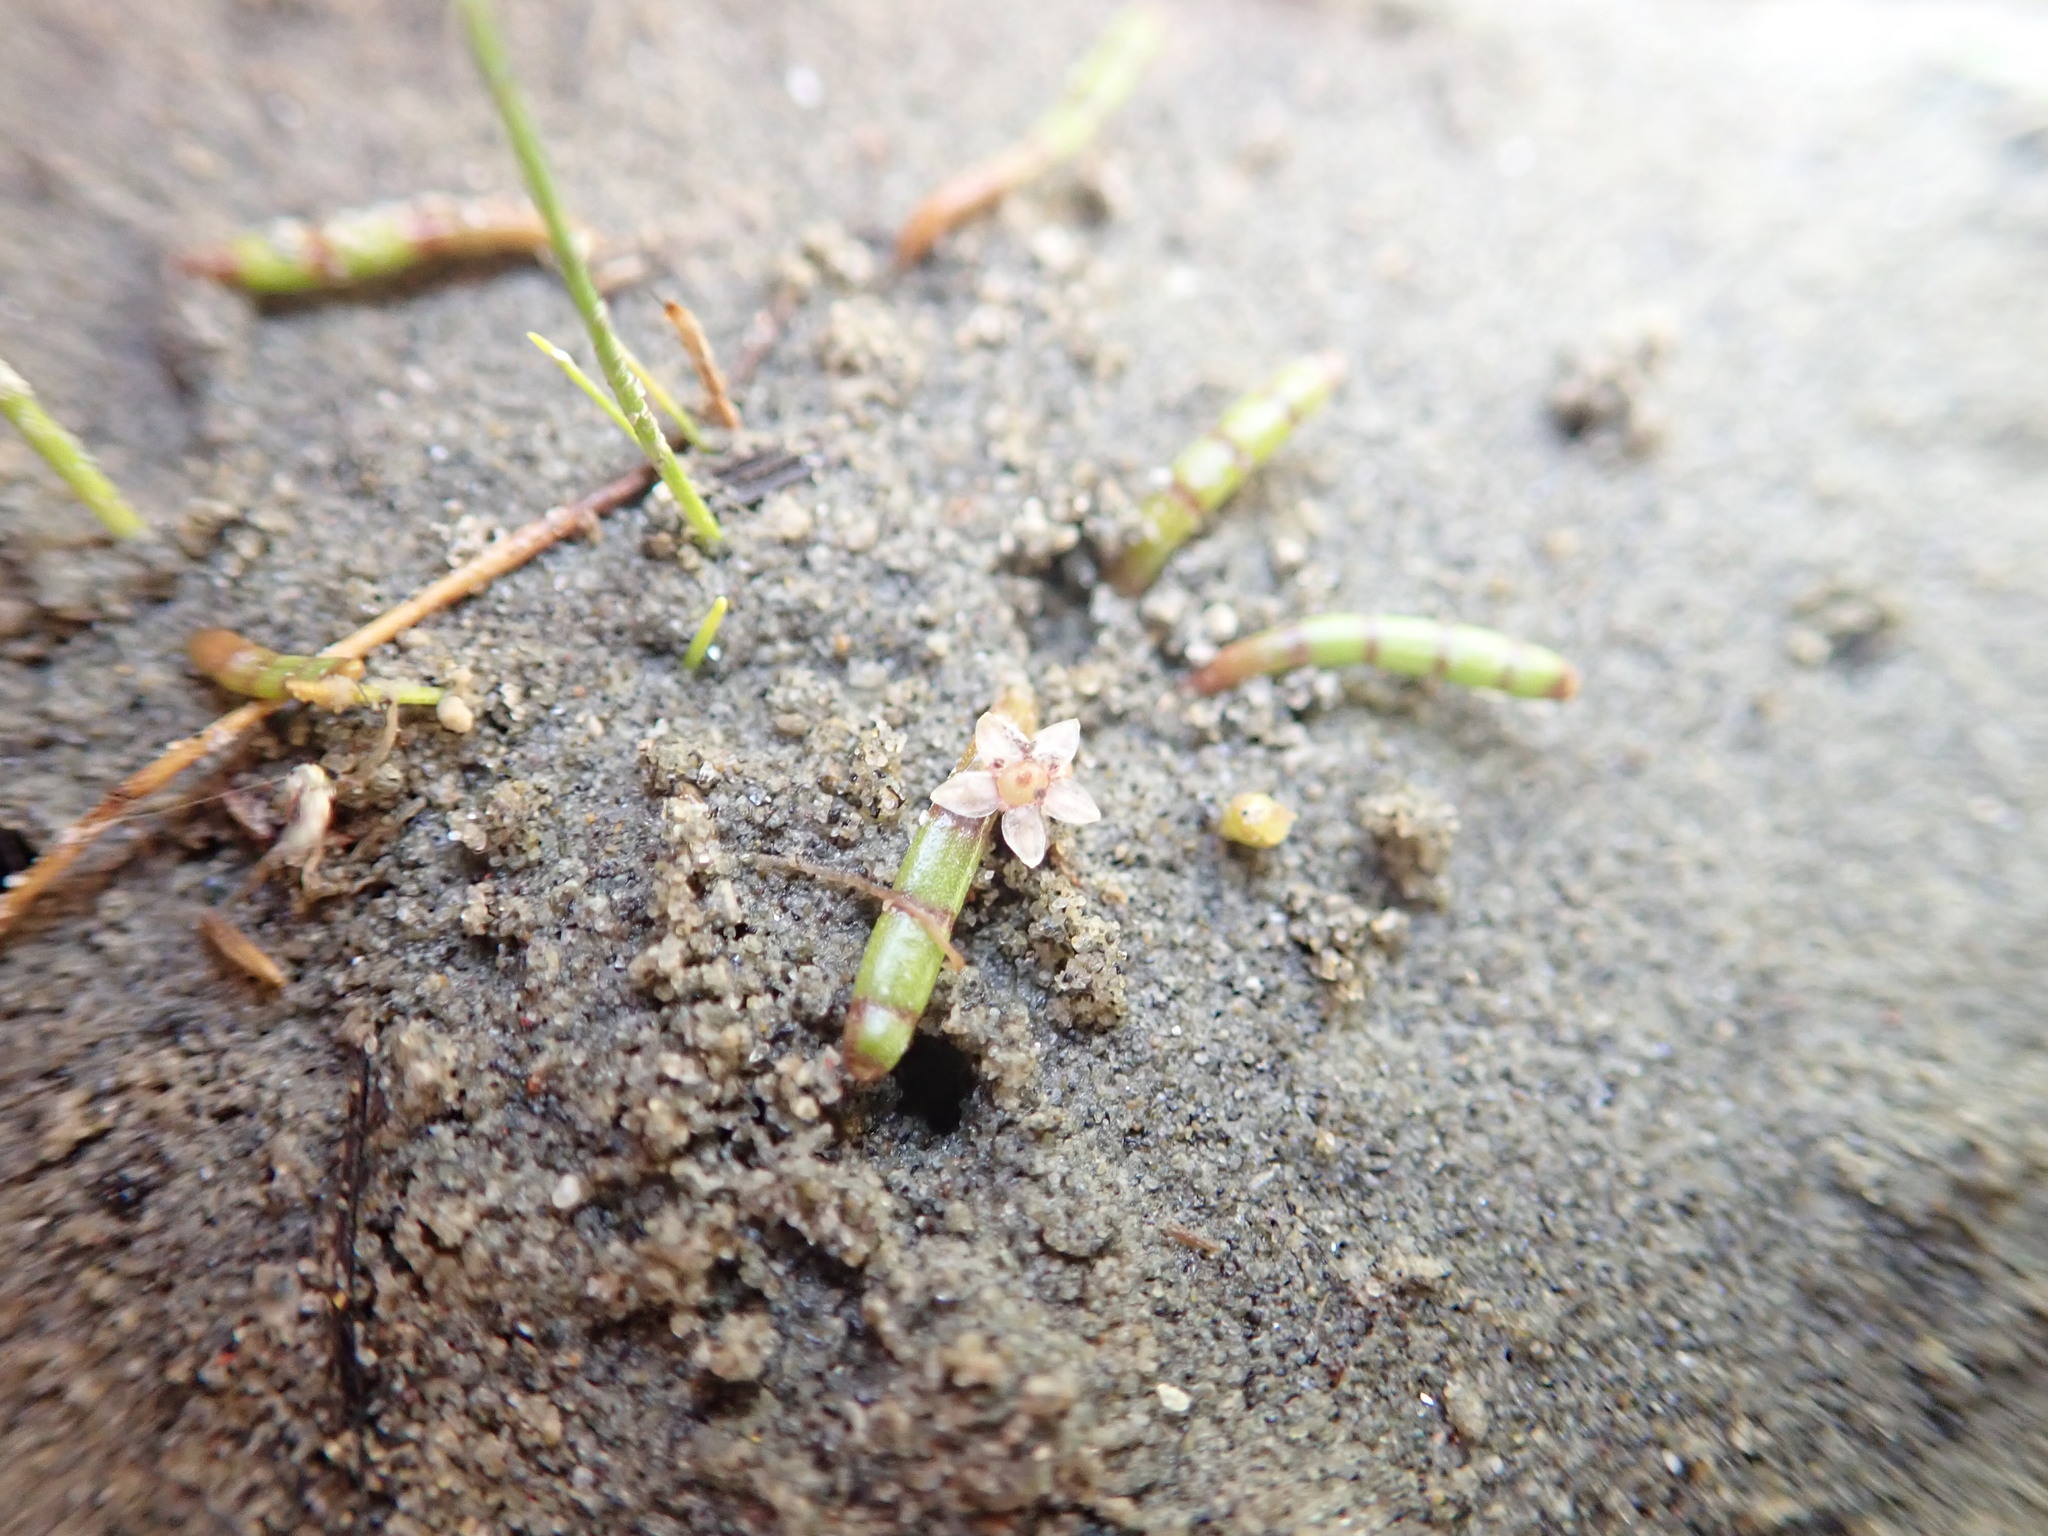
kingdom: Plantae
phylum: Tracheophyta
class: Magnoliopsida
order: Apiales
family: Apiaceae
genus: Lilaeopsis
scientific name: Lilaeopsis novae-zelandiae
